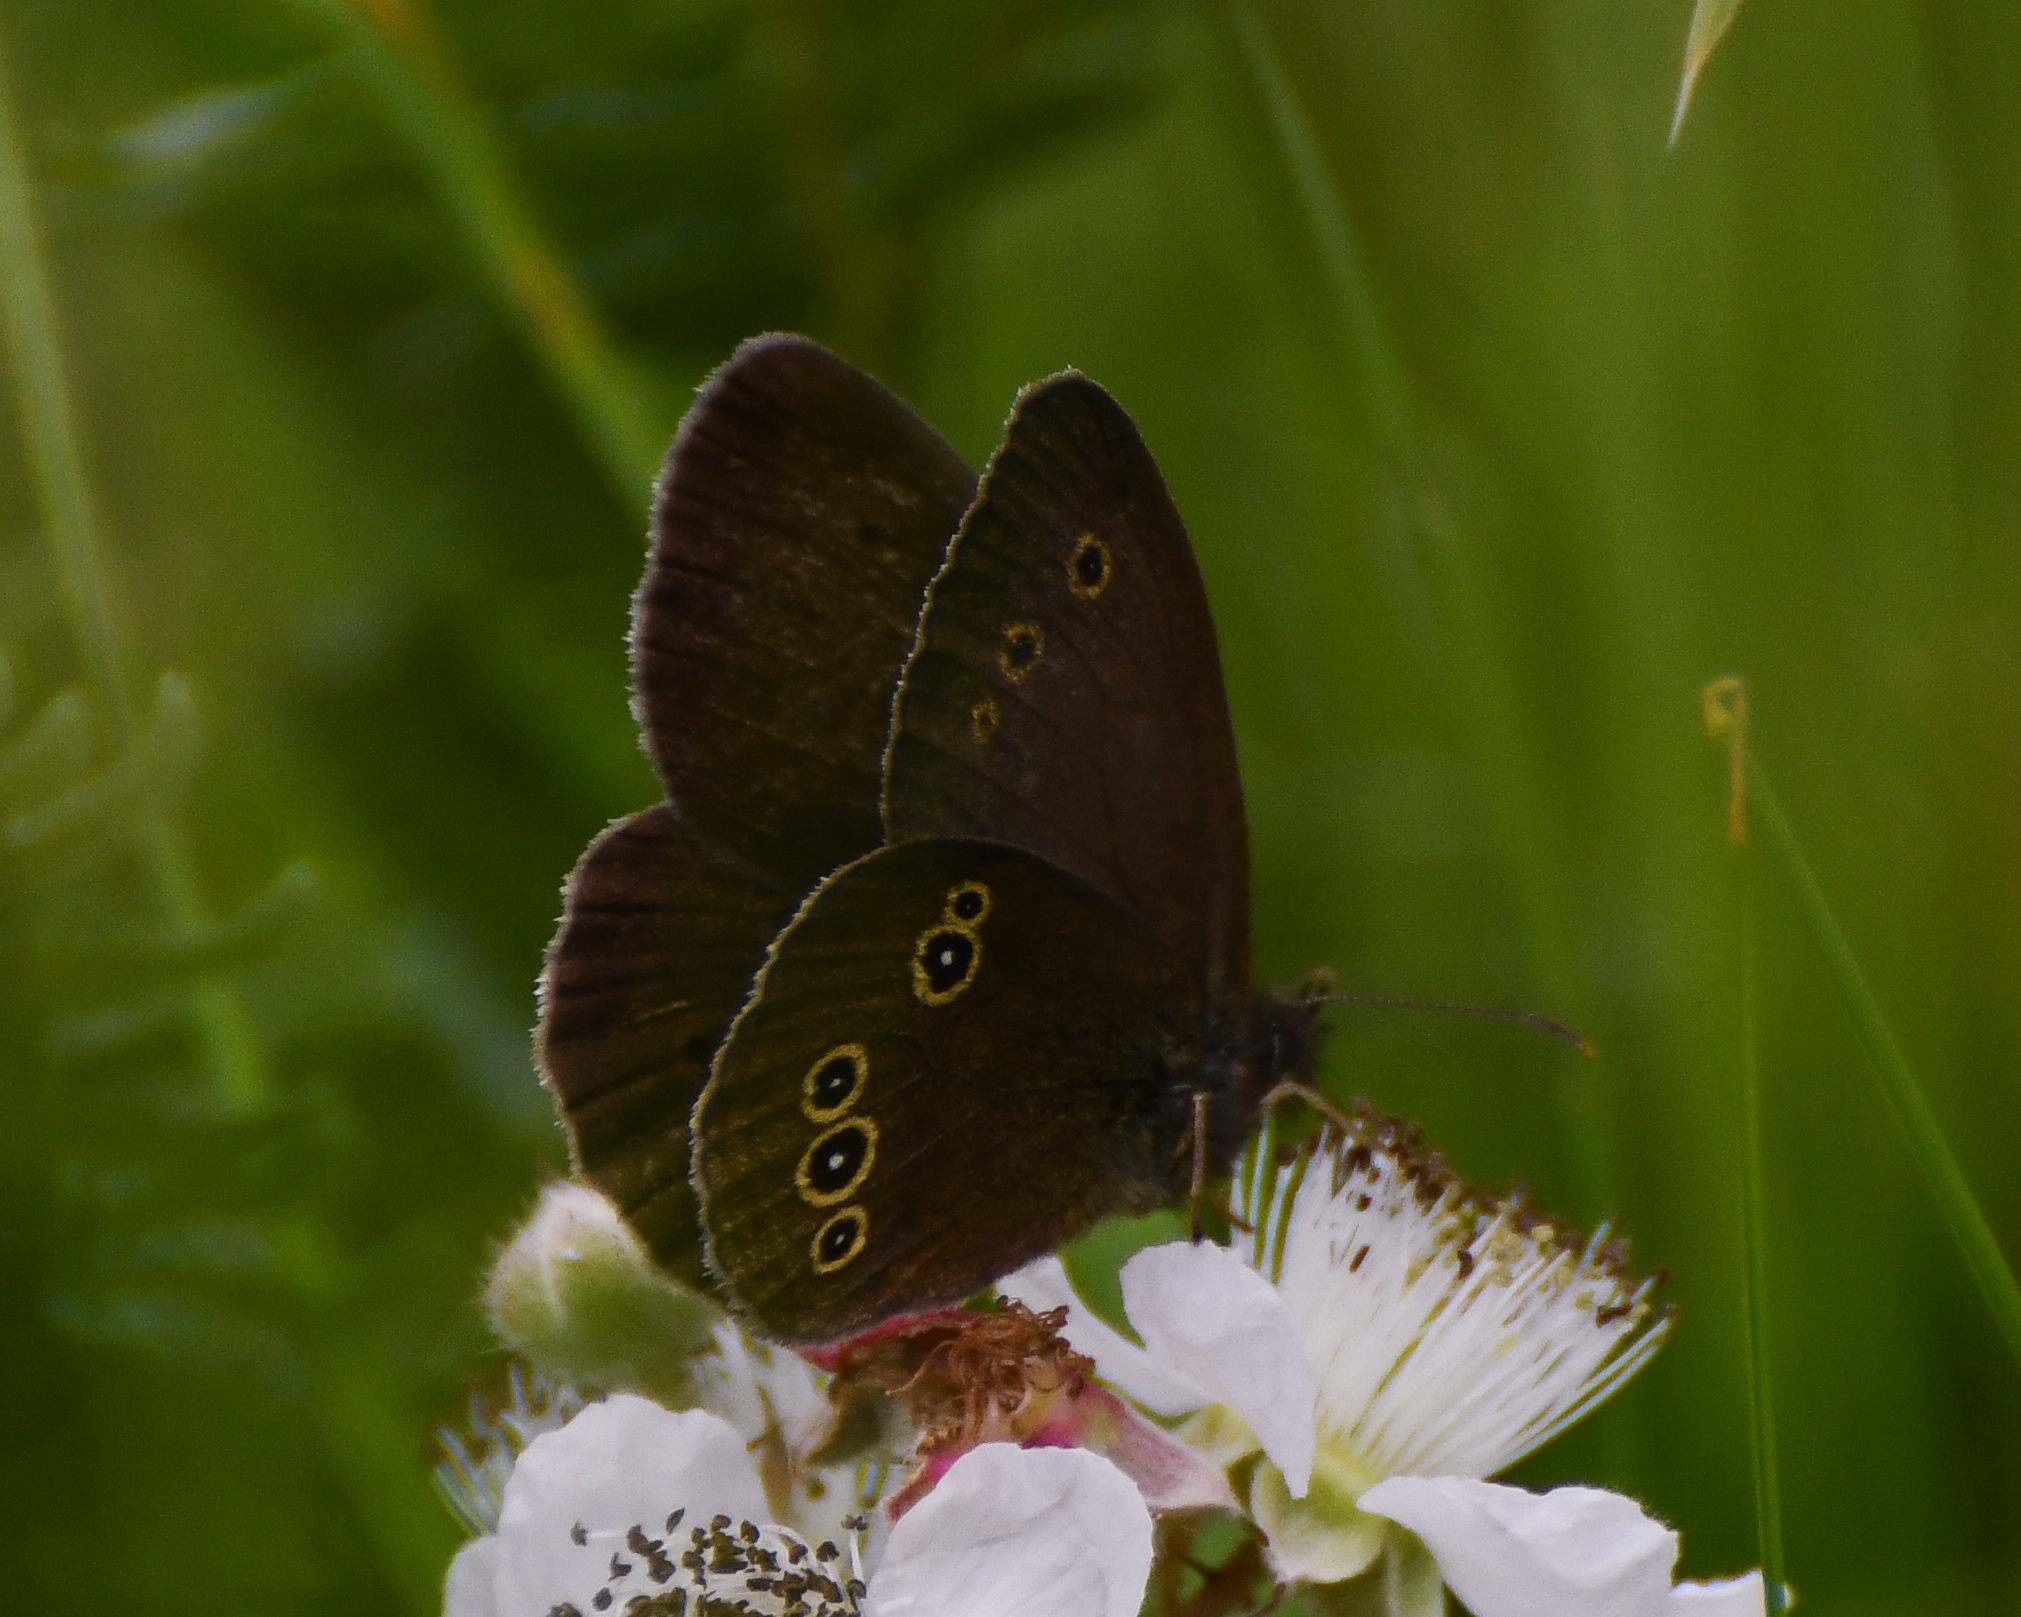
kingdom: Animalia
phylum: Arthropoda
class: Insecta
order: Lepidoptera
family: Nymphalidae
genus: Aphantopus
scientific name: Aphantopus hyperantus
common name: Ringlet
